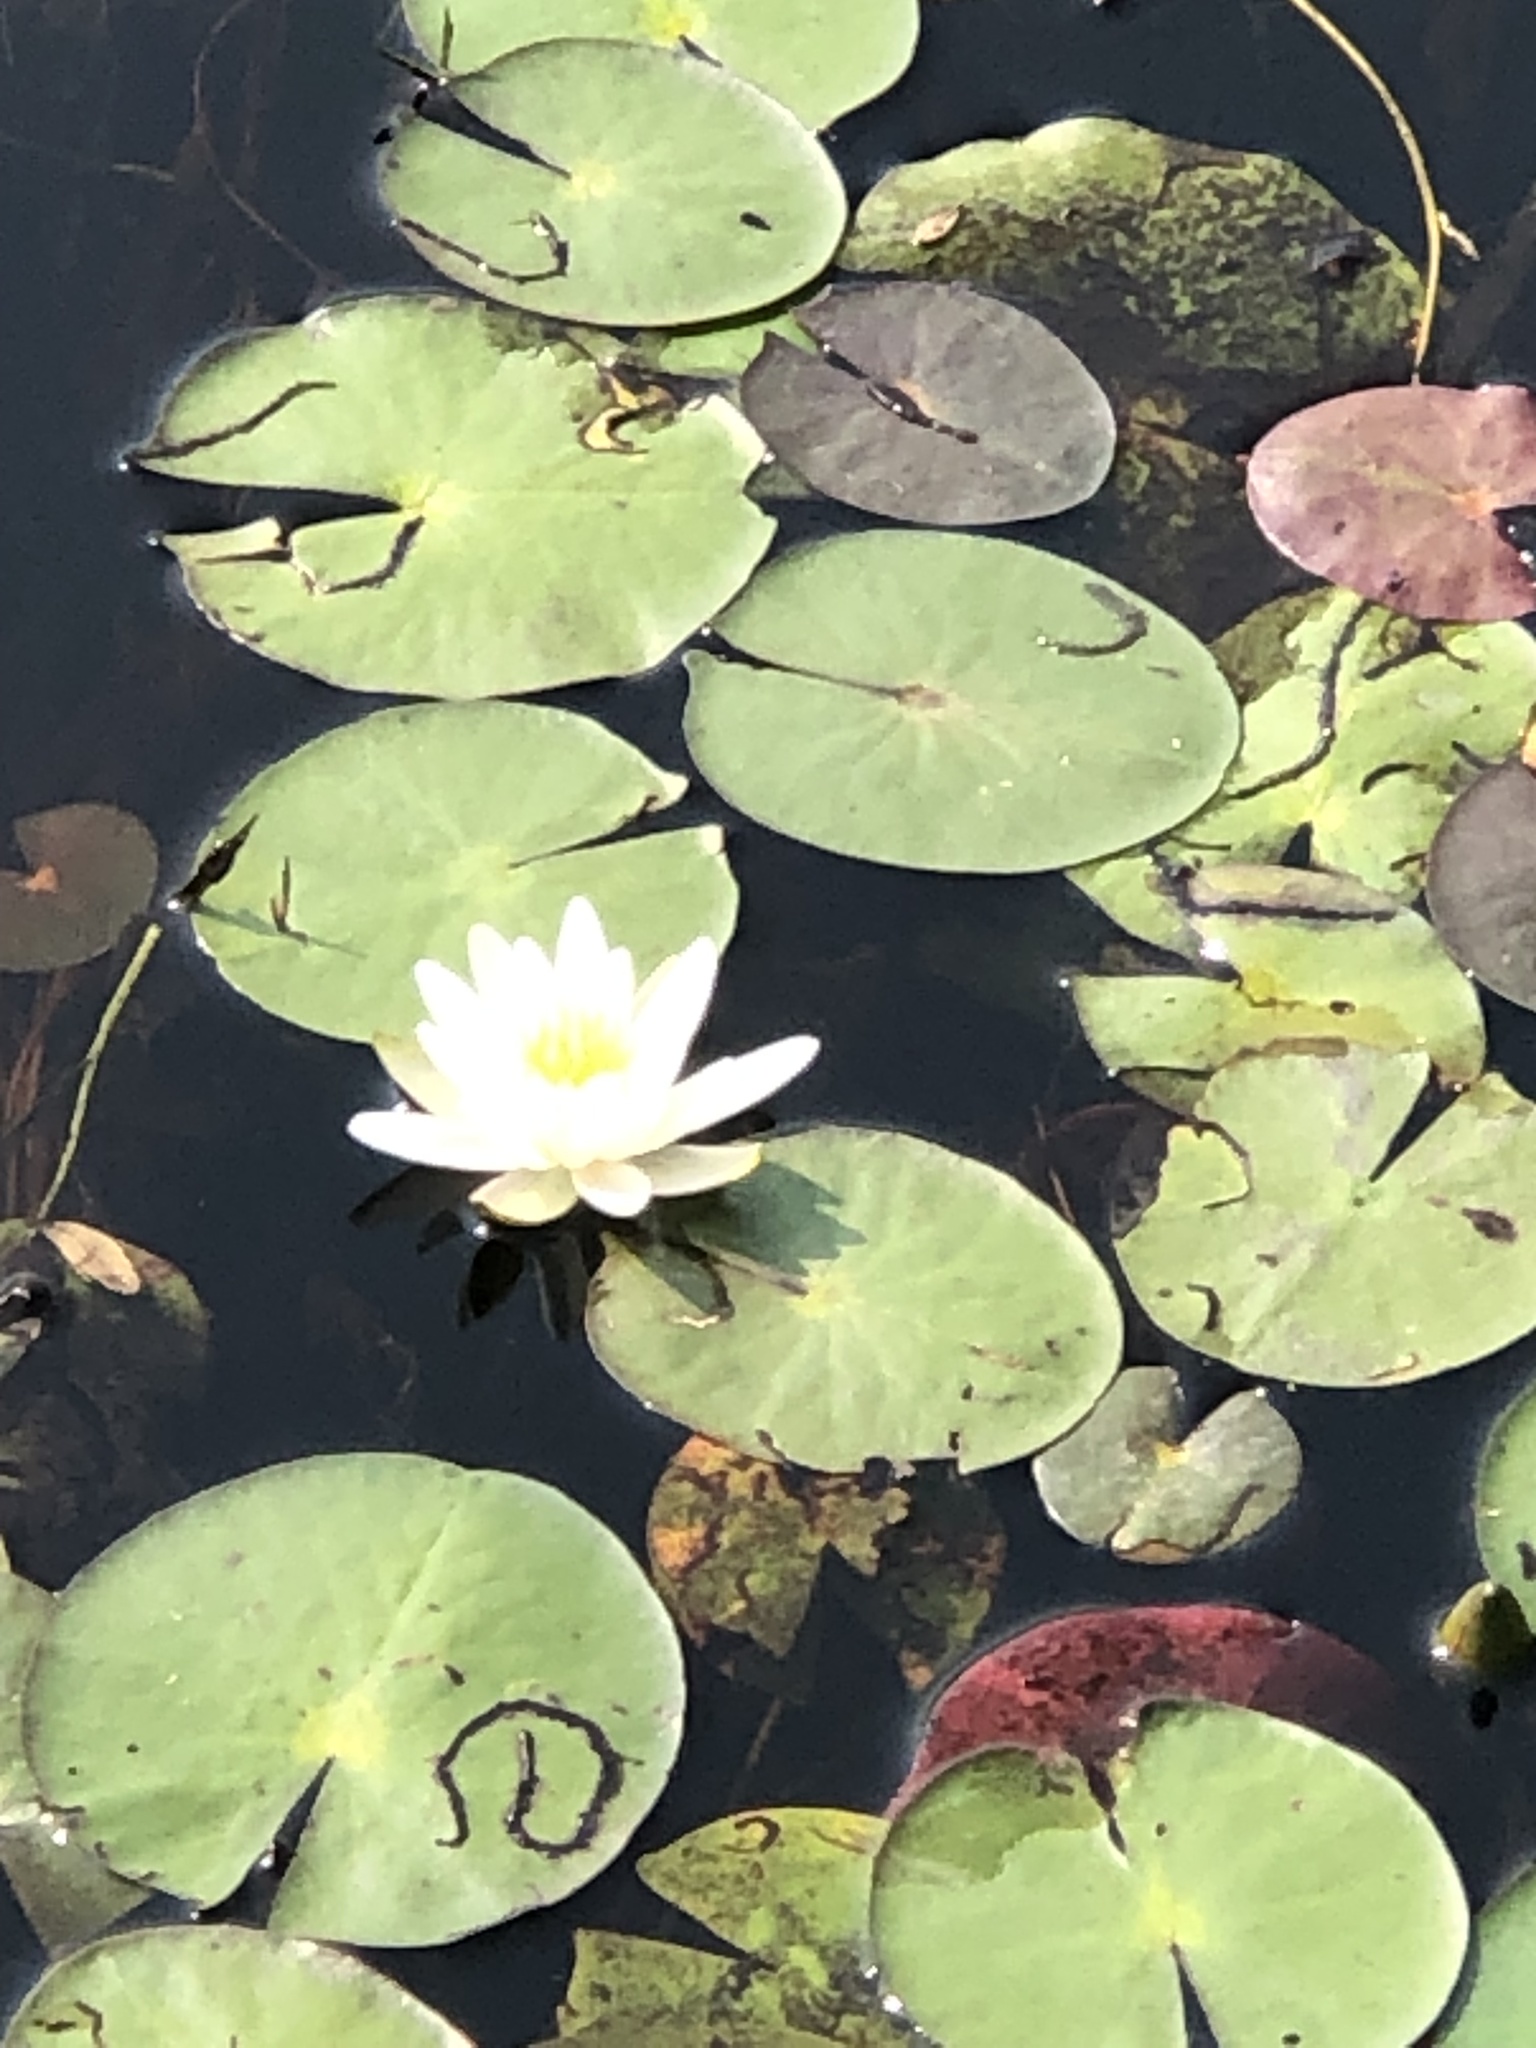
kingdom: Plantae
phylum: Tracheophyta
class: Magnoliopsida
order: Nymphaeales
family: Nymphaeaceae
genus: Nymphaea
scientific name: Nymphaea odorata
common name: Fragrant water-lily
